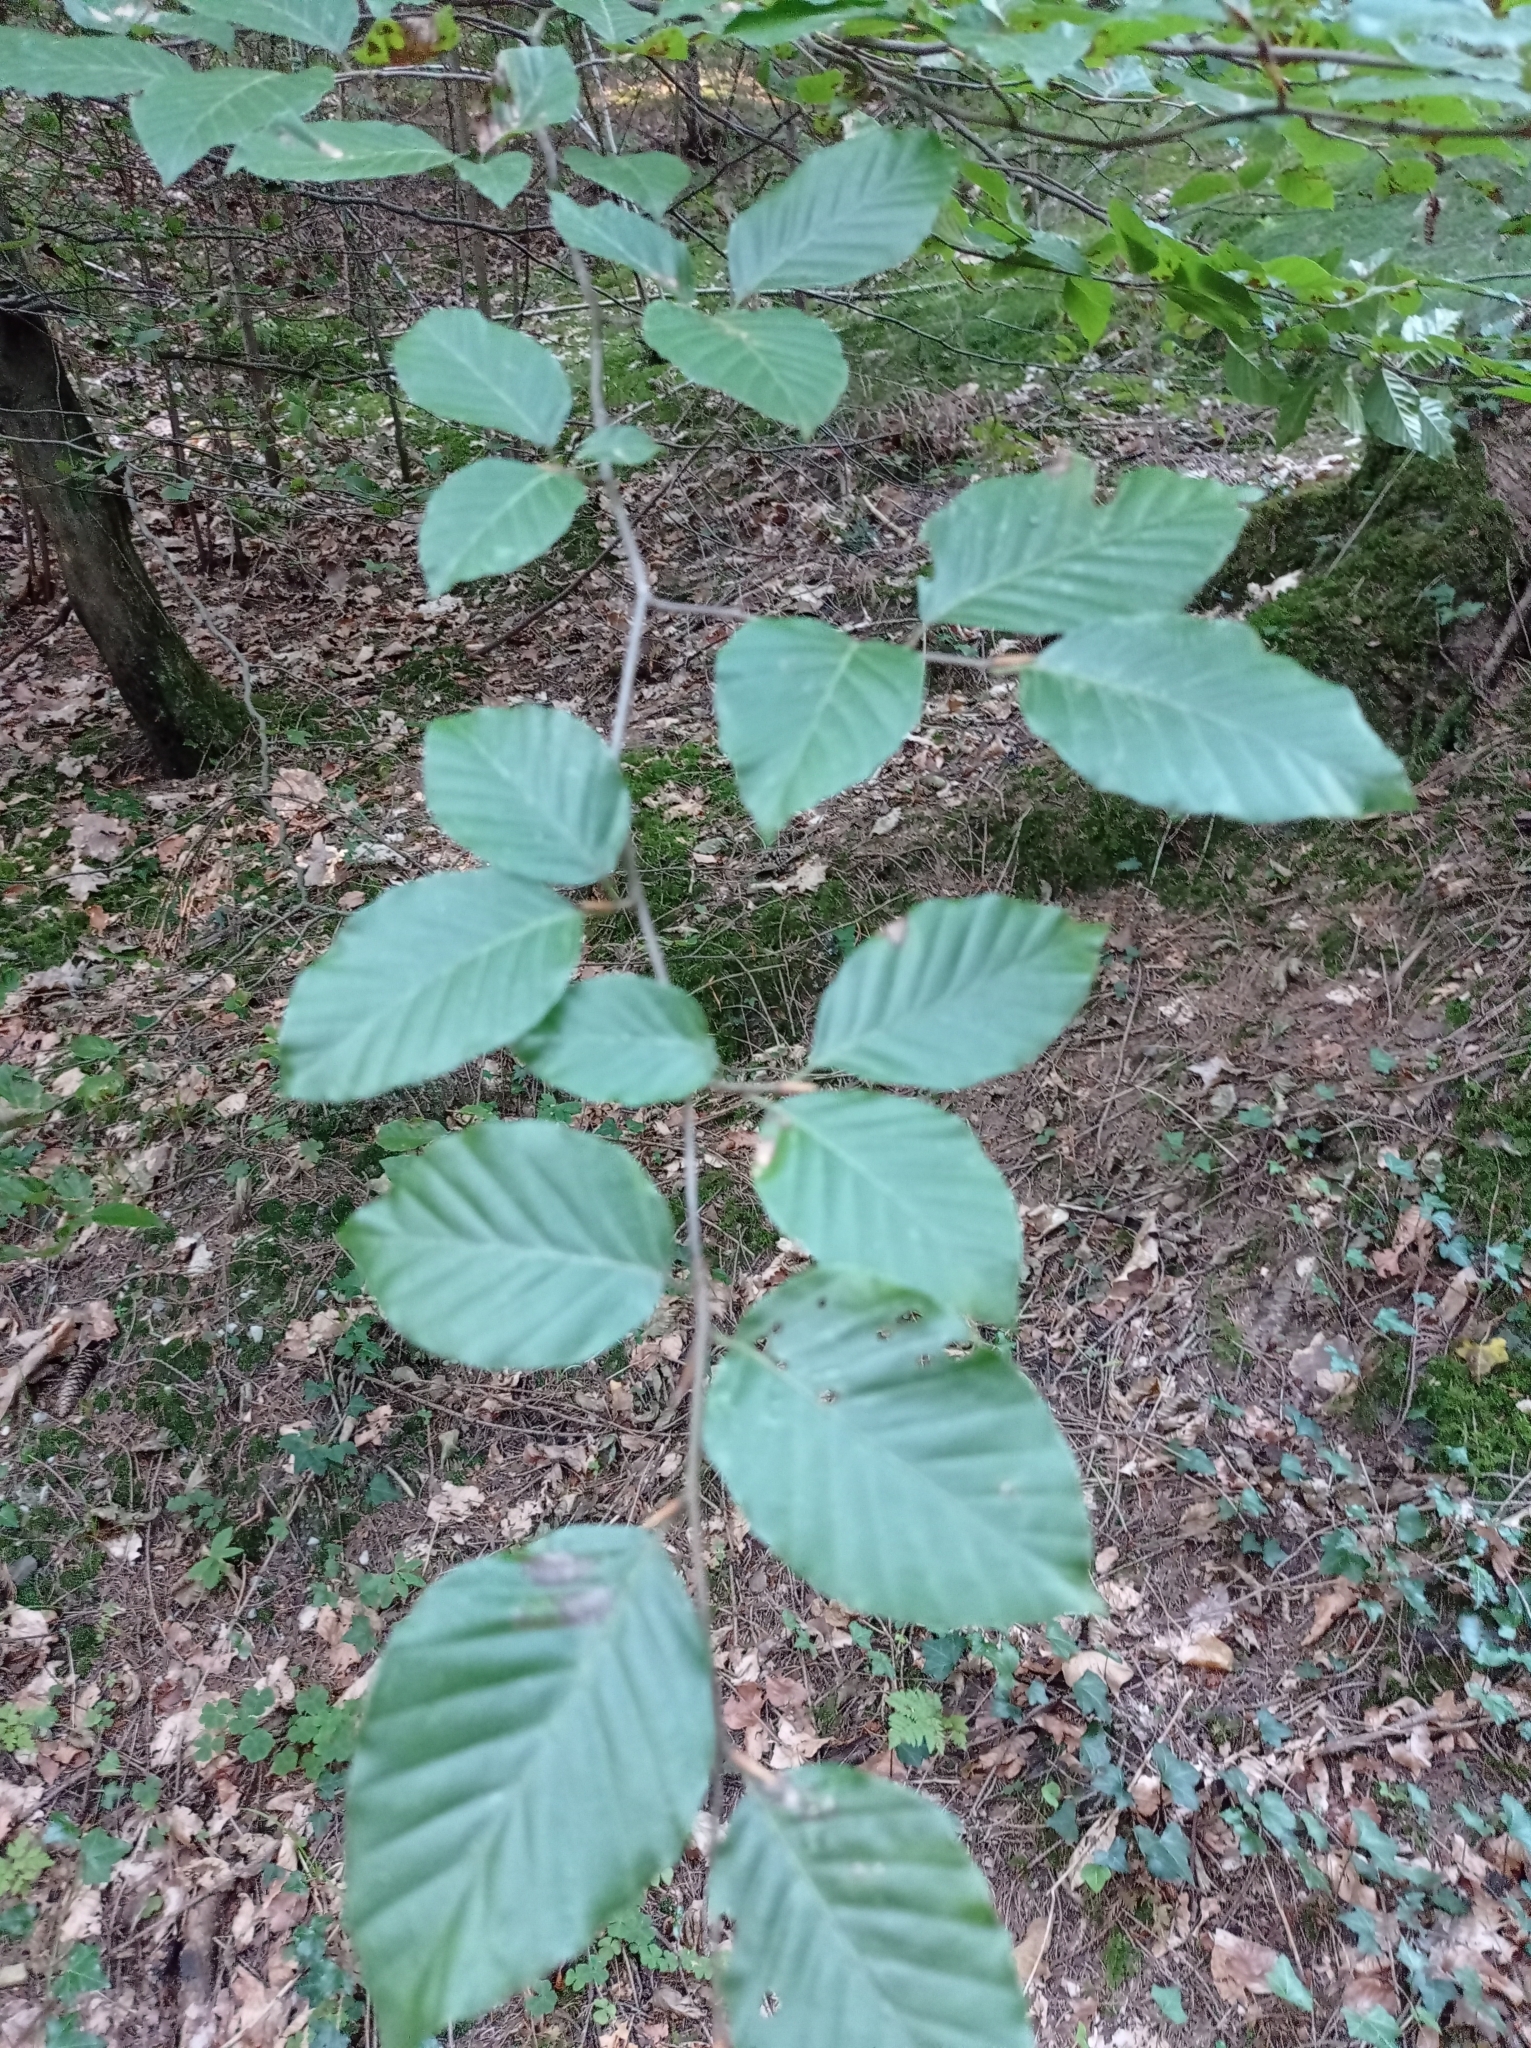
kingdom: Plantae
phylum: Tracheophyta
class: Magnoliopsida
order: Fagales
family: Fagaceae
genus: Fagus
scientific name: Fagus sylvatica
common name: Beech
